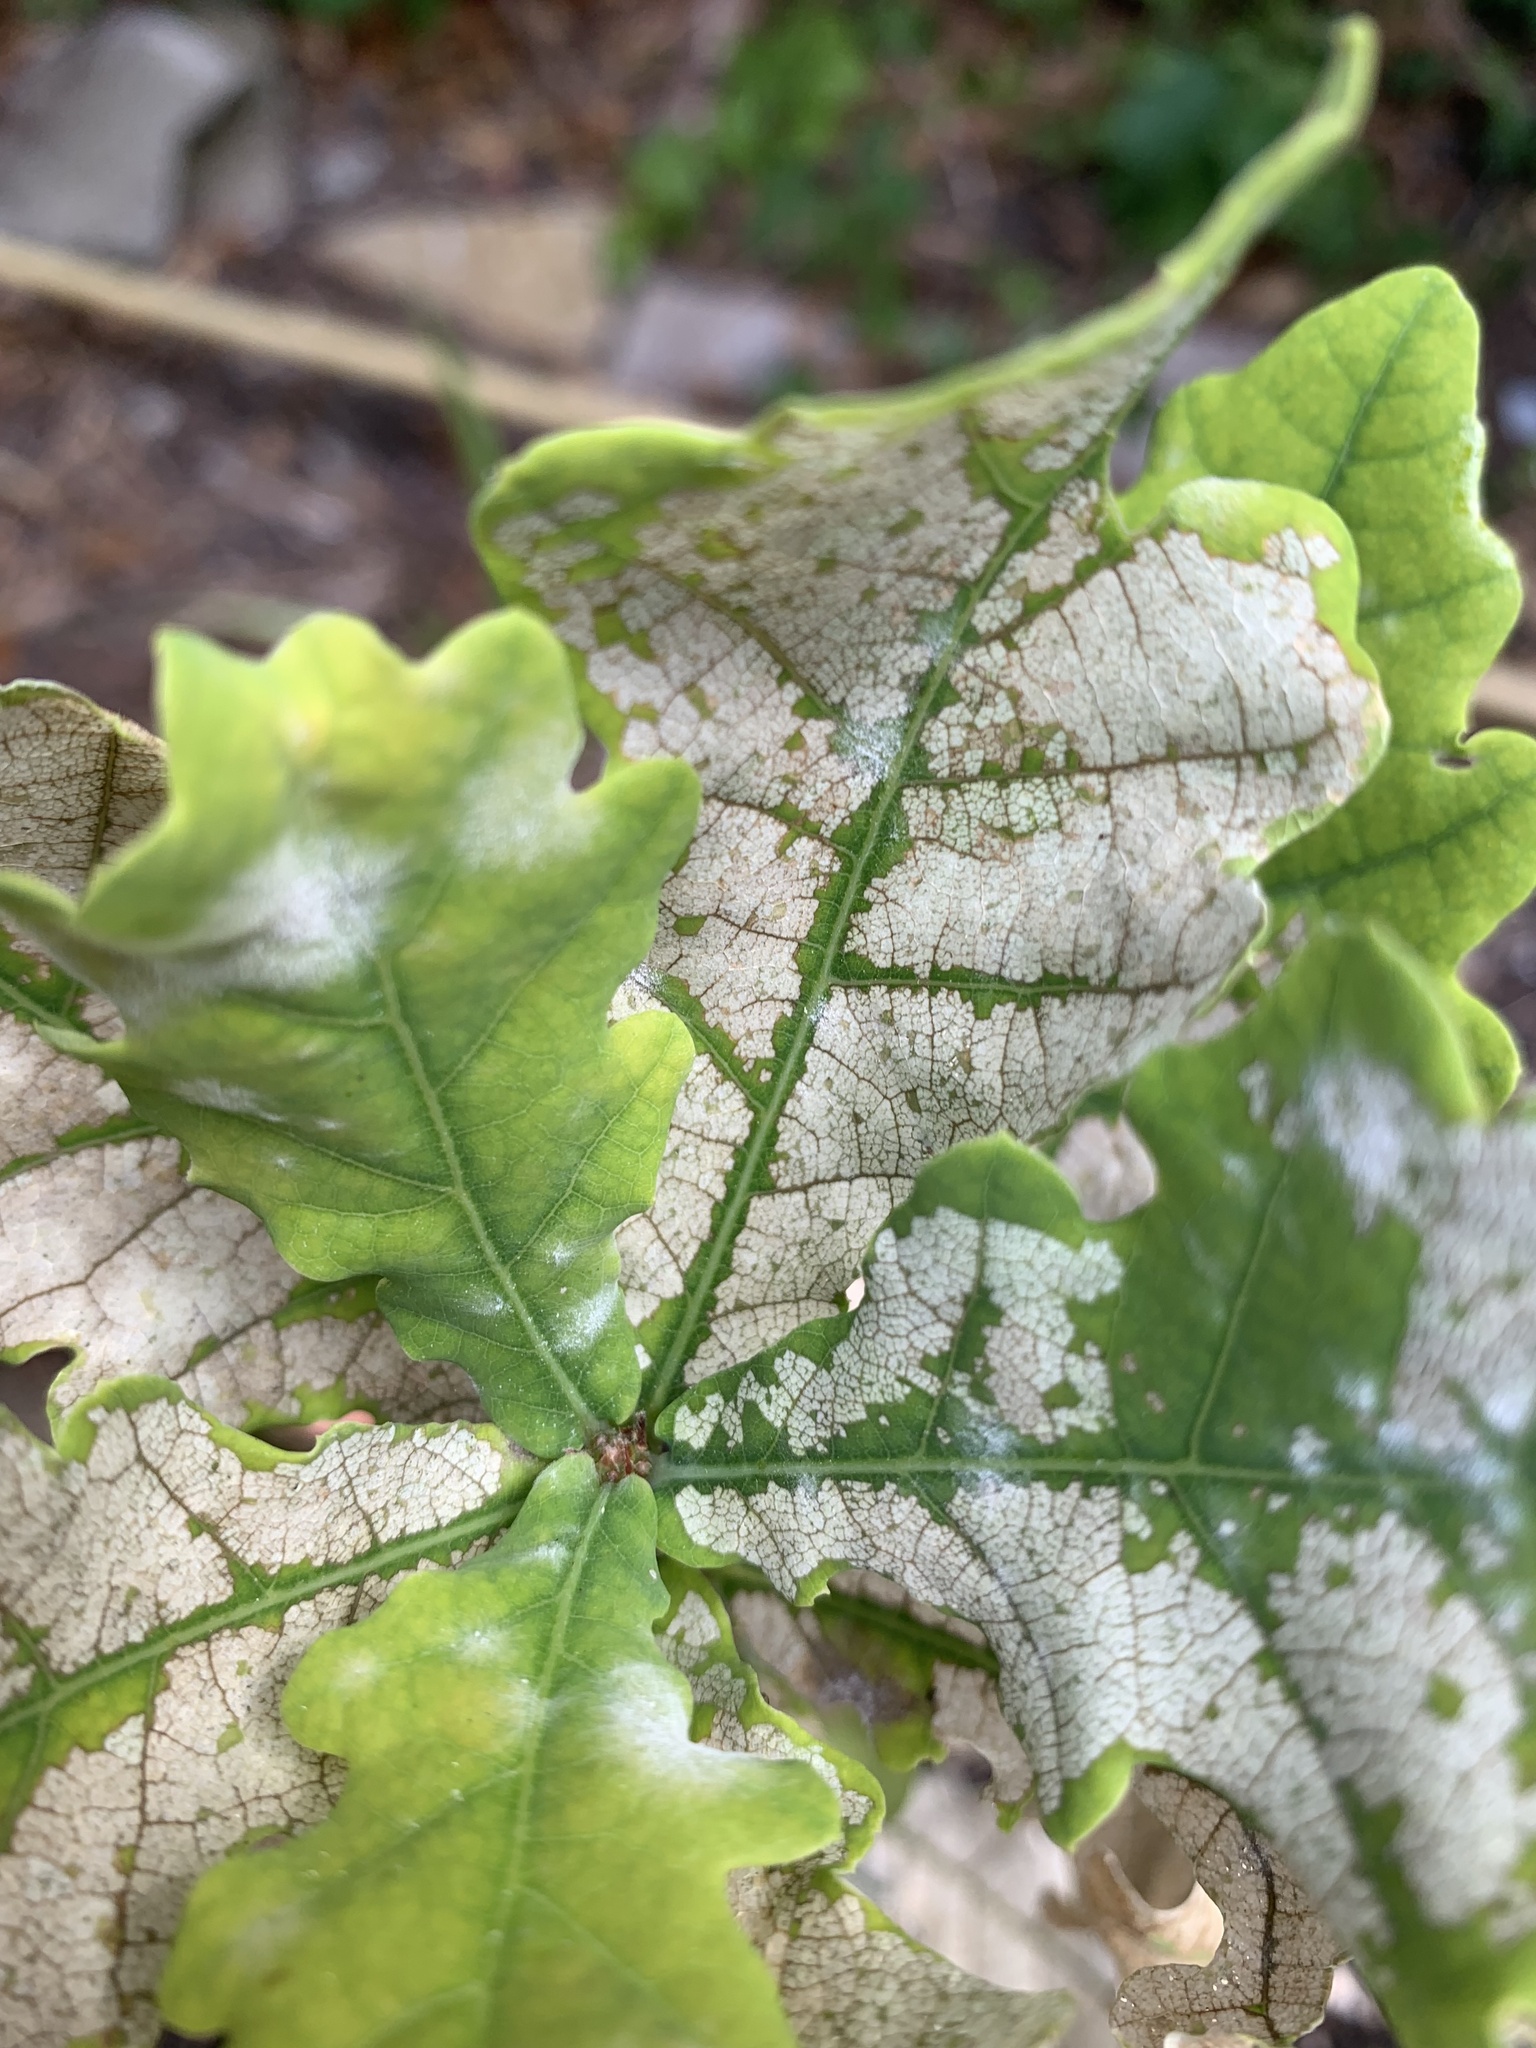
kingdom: Fungi
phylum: Ascomycota
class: Leotiomycetes
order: Helotiales
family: Erysiphaceae
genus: Erysiphe
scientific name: Erysiphe alphitoides
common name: Oak mildew
